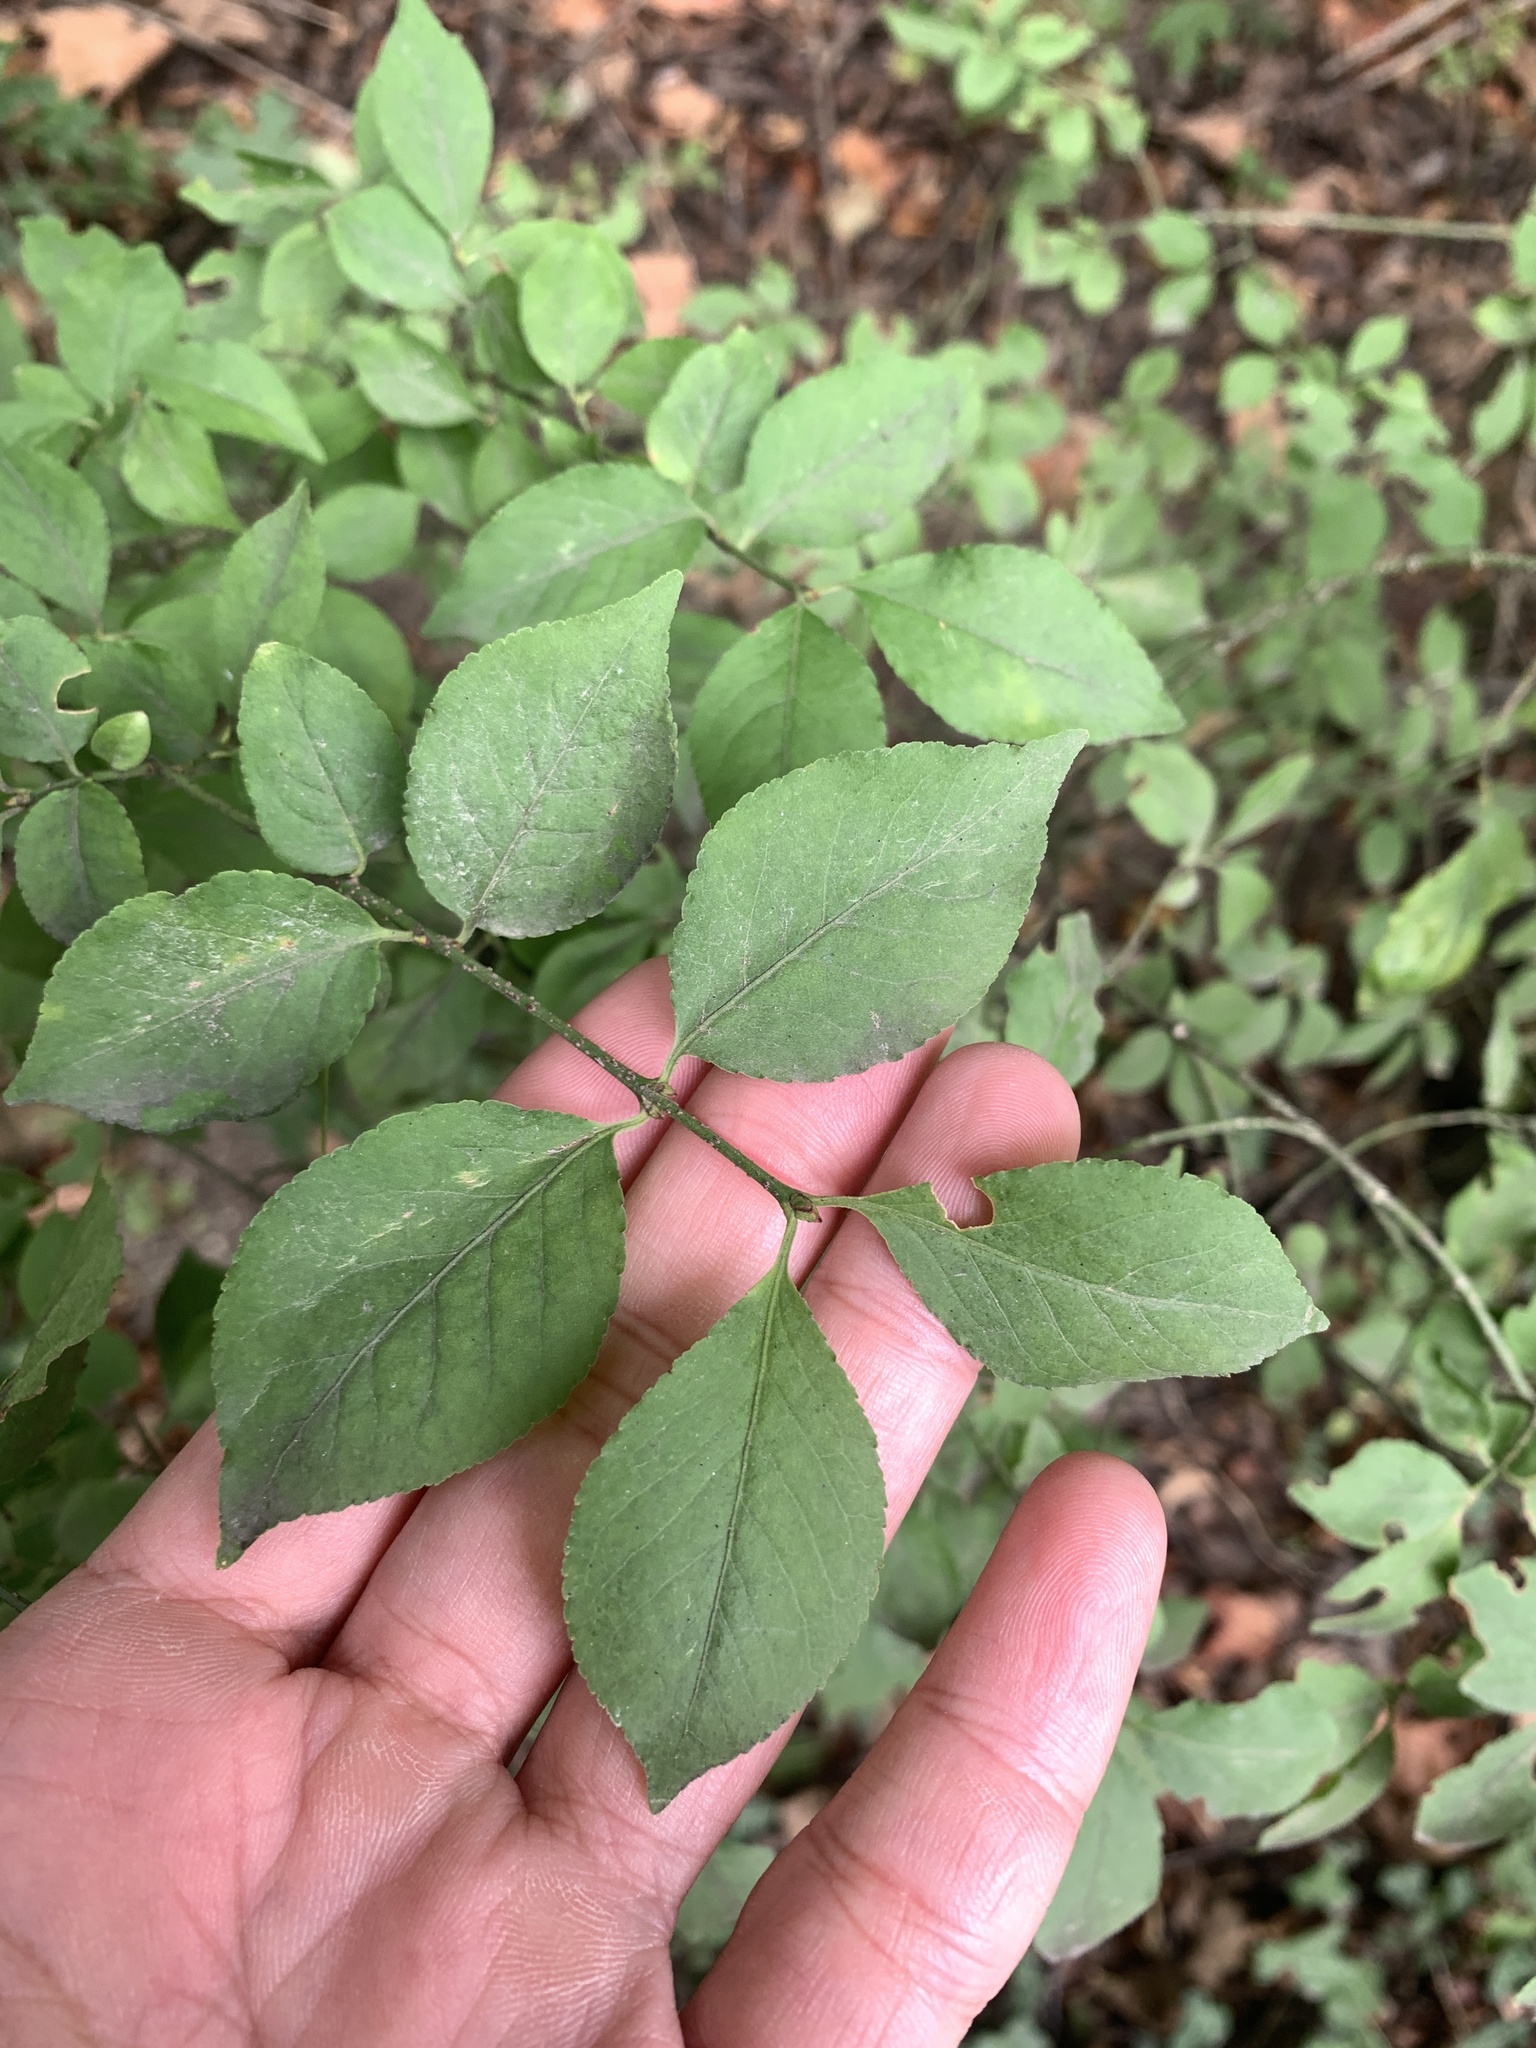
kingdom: Plantae
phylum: Tracheophyta
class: Magnoliopsida
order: Celastrales
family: Celastraceae
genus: Euonymus
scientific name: Euonymus verrucosus
